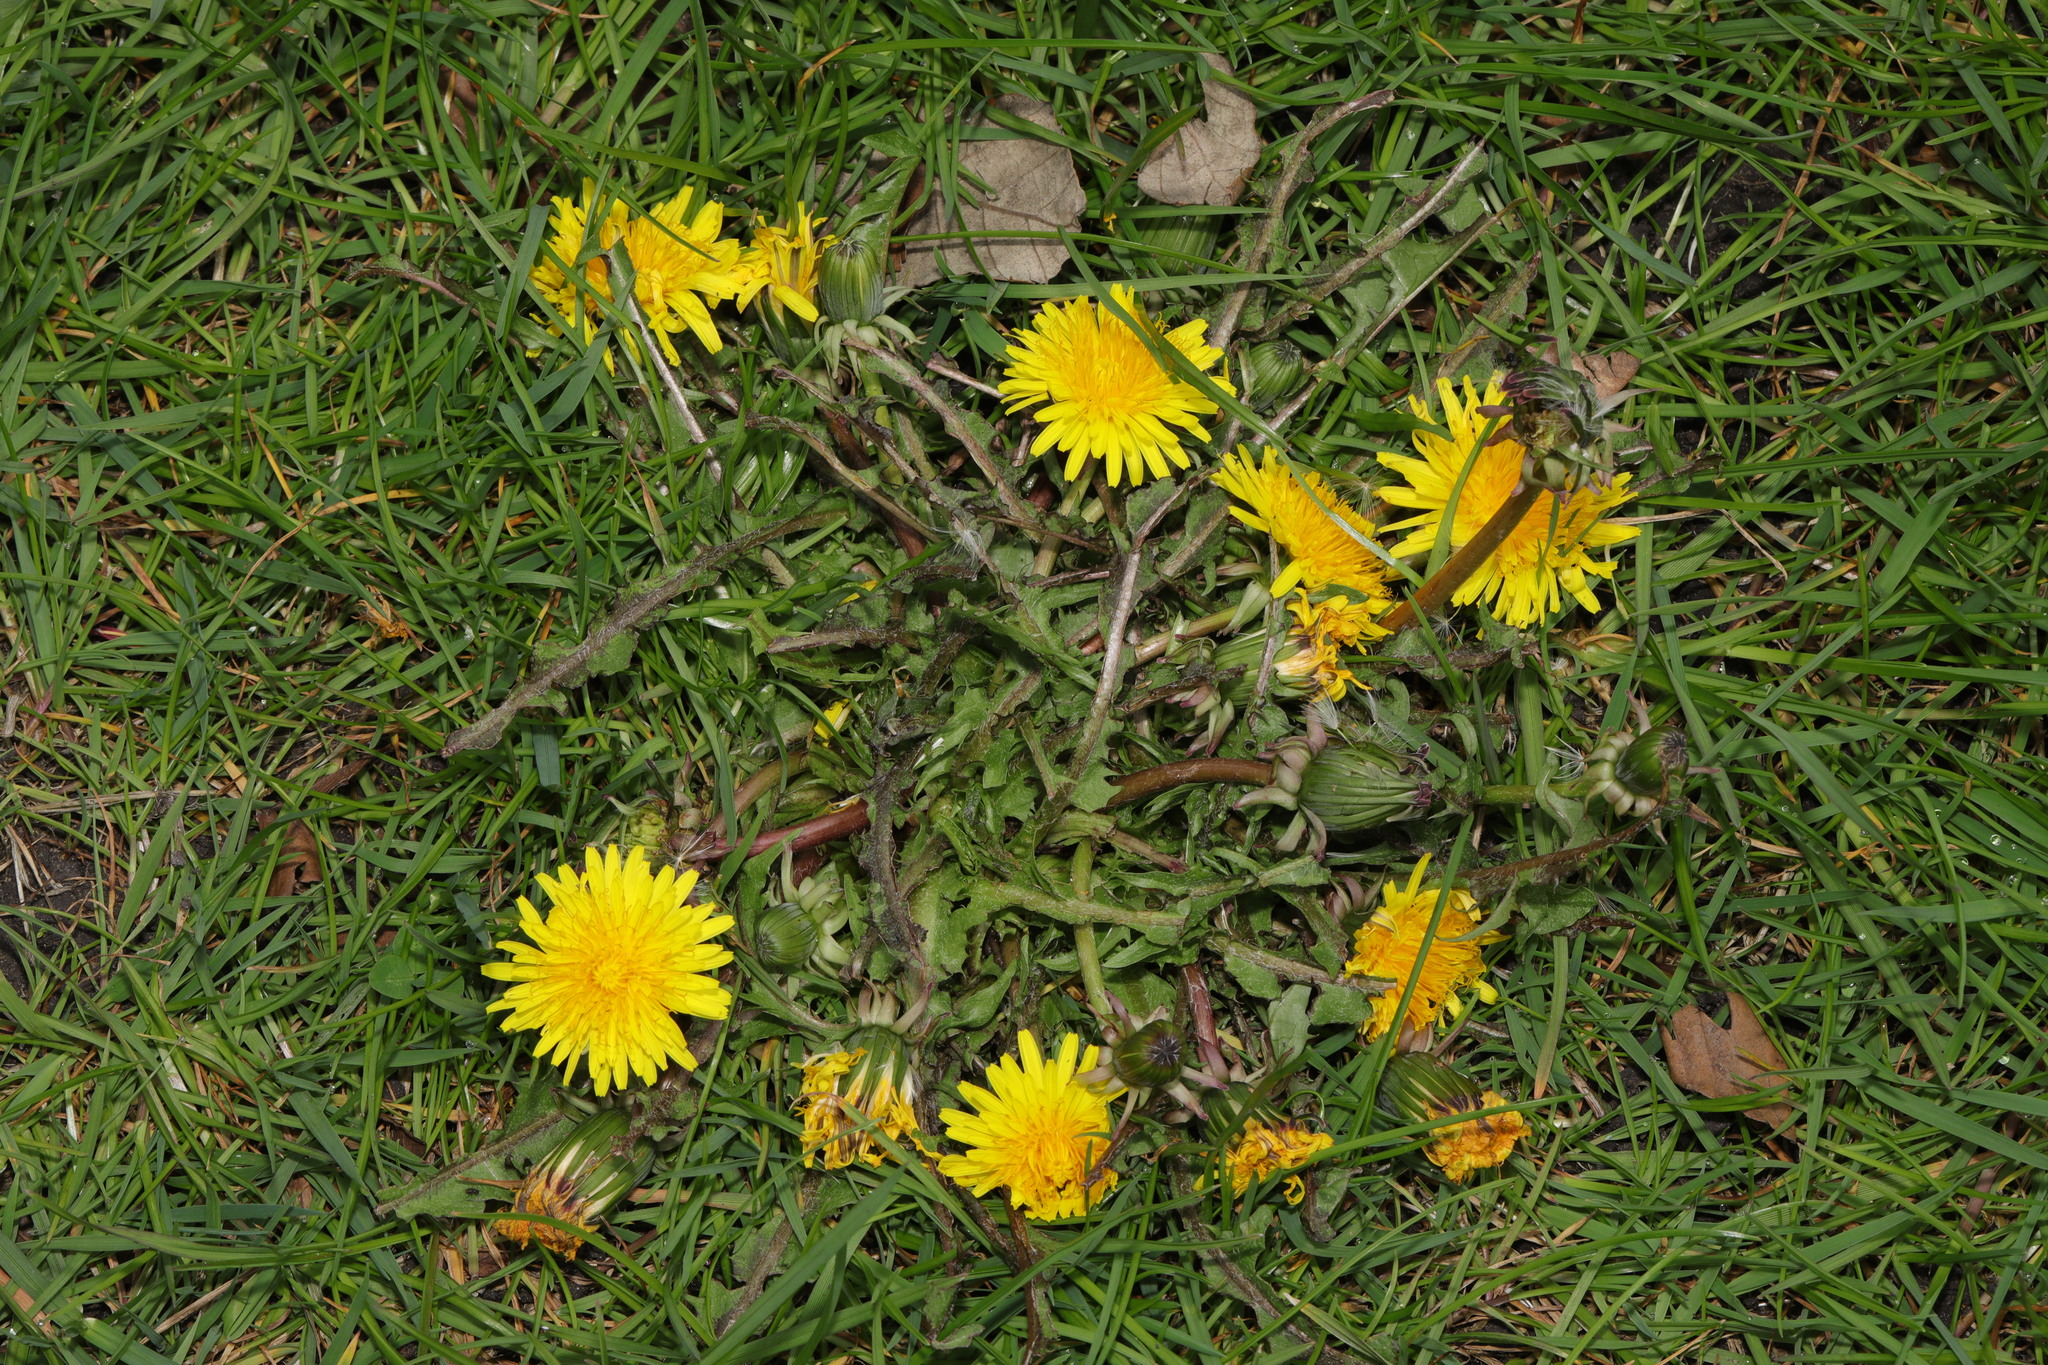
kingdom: Plantae
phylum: Tracheophyta
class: Magnoliopsida
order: Asterales
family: Asteraceae
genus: Taraxacum
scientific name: Taraxacum officinale
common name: Common dandelion
